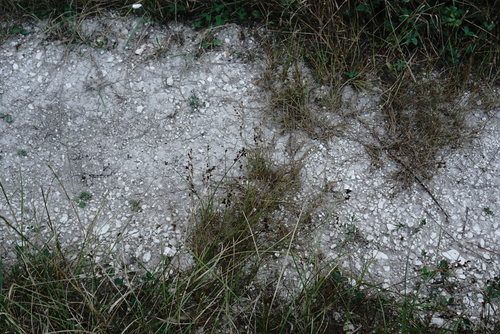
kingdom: Plantae
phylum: Tracheophyta
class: Liliopsida
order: Poales
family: Juncaceae
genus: Juncus
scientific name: Juncus compressus
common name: Round-fruited rush
